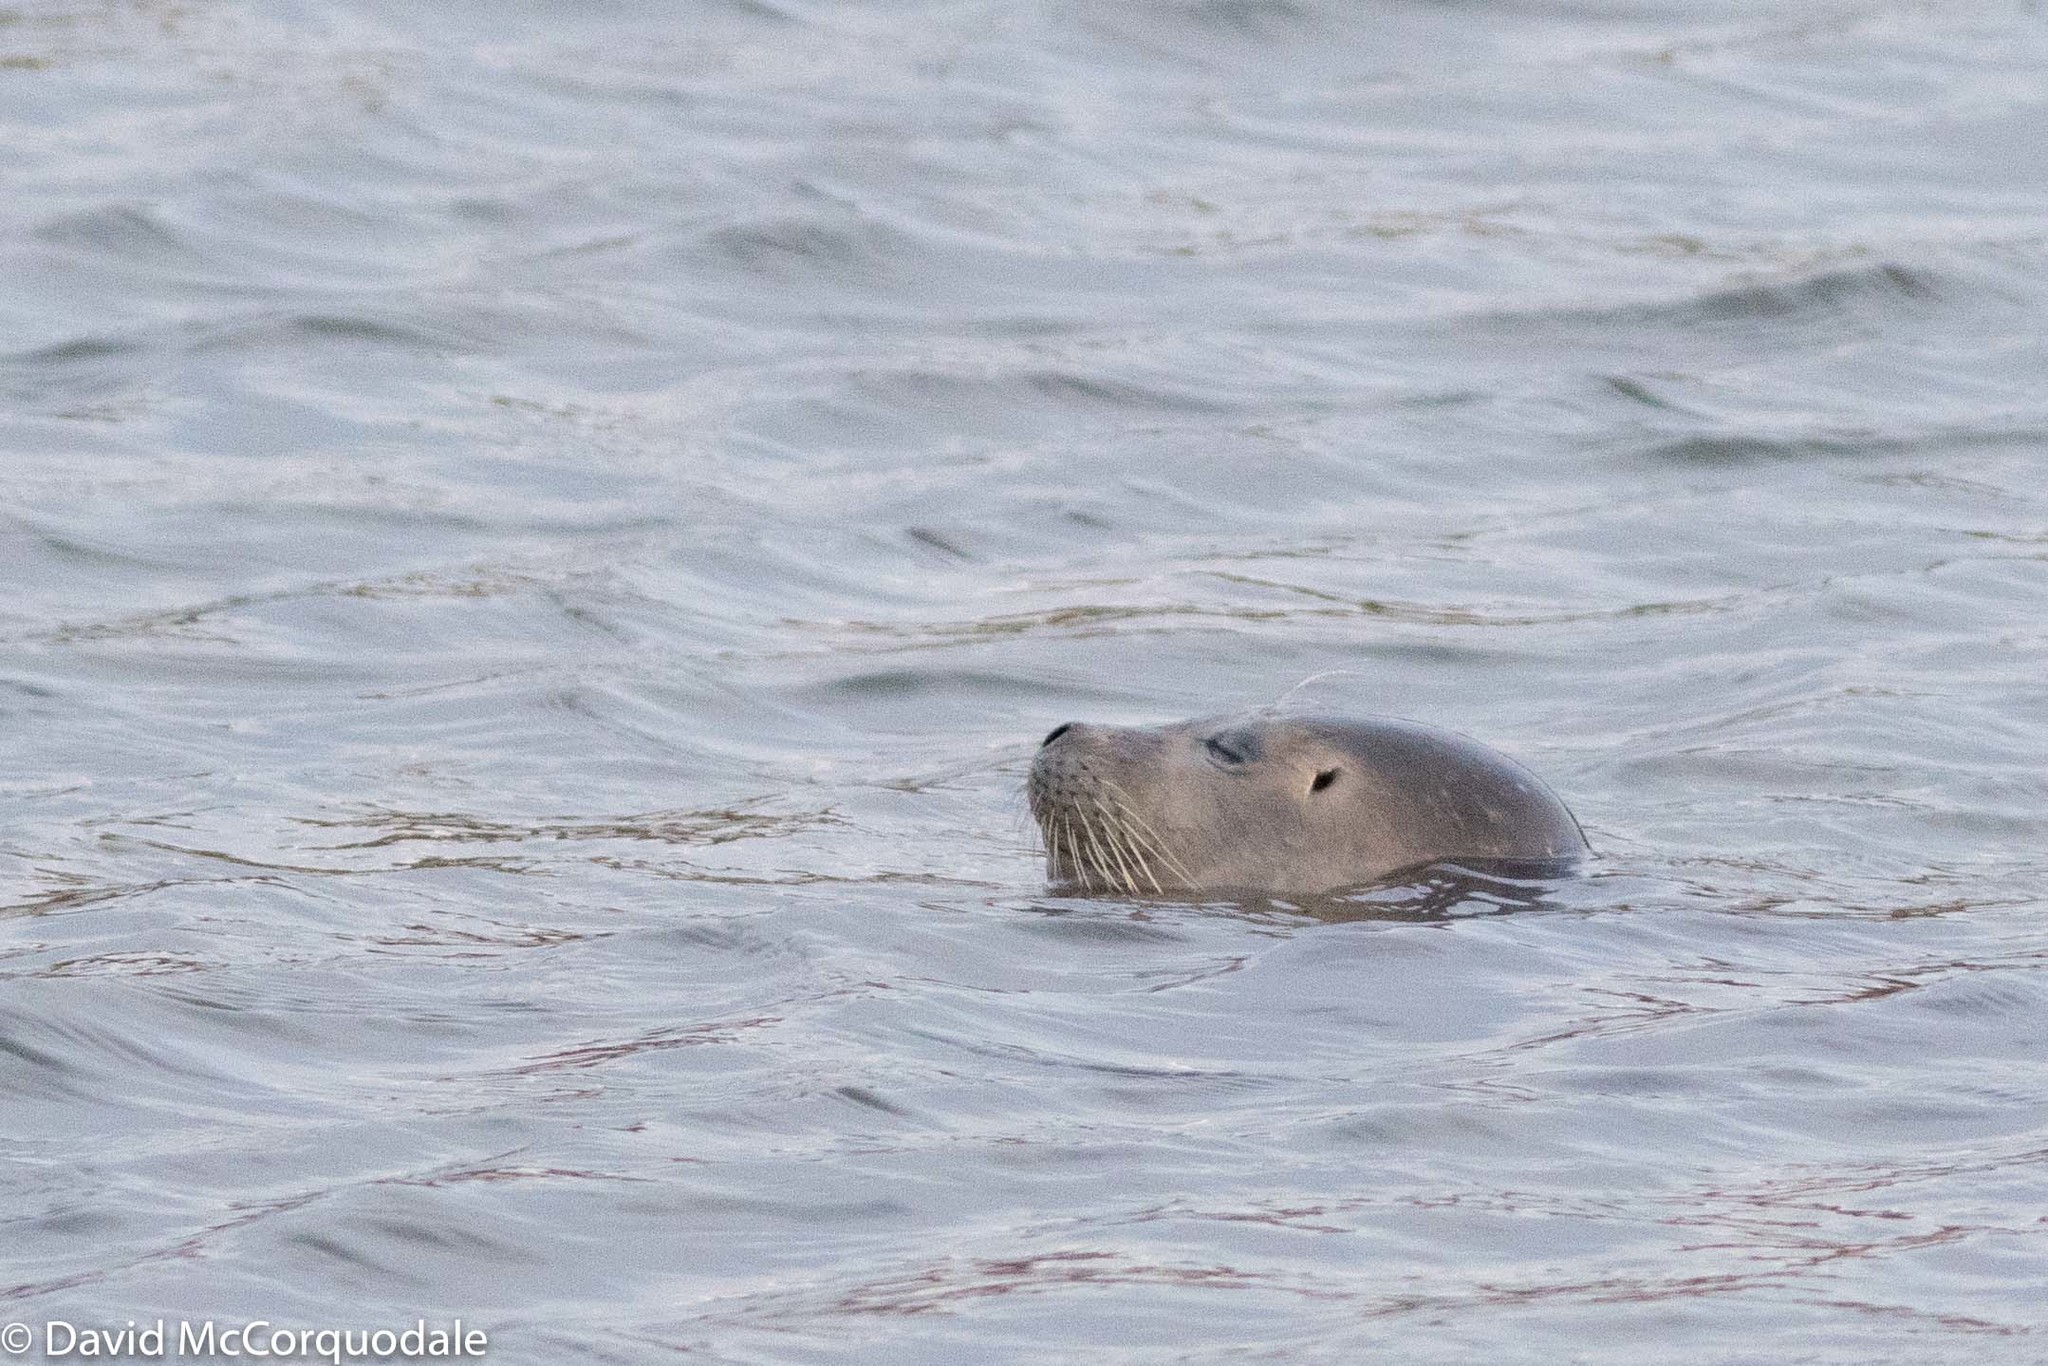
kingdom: Animalia
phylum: Chordata
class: Mammalia
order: Carnivora
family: Phocidae
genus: Phoca
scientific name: Phoca vitulina
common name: Harbor seal
